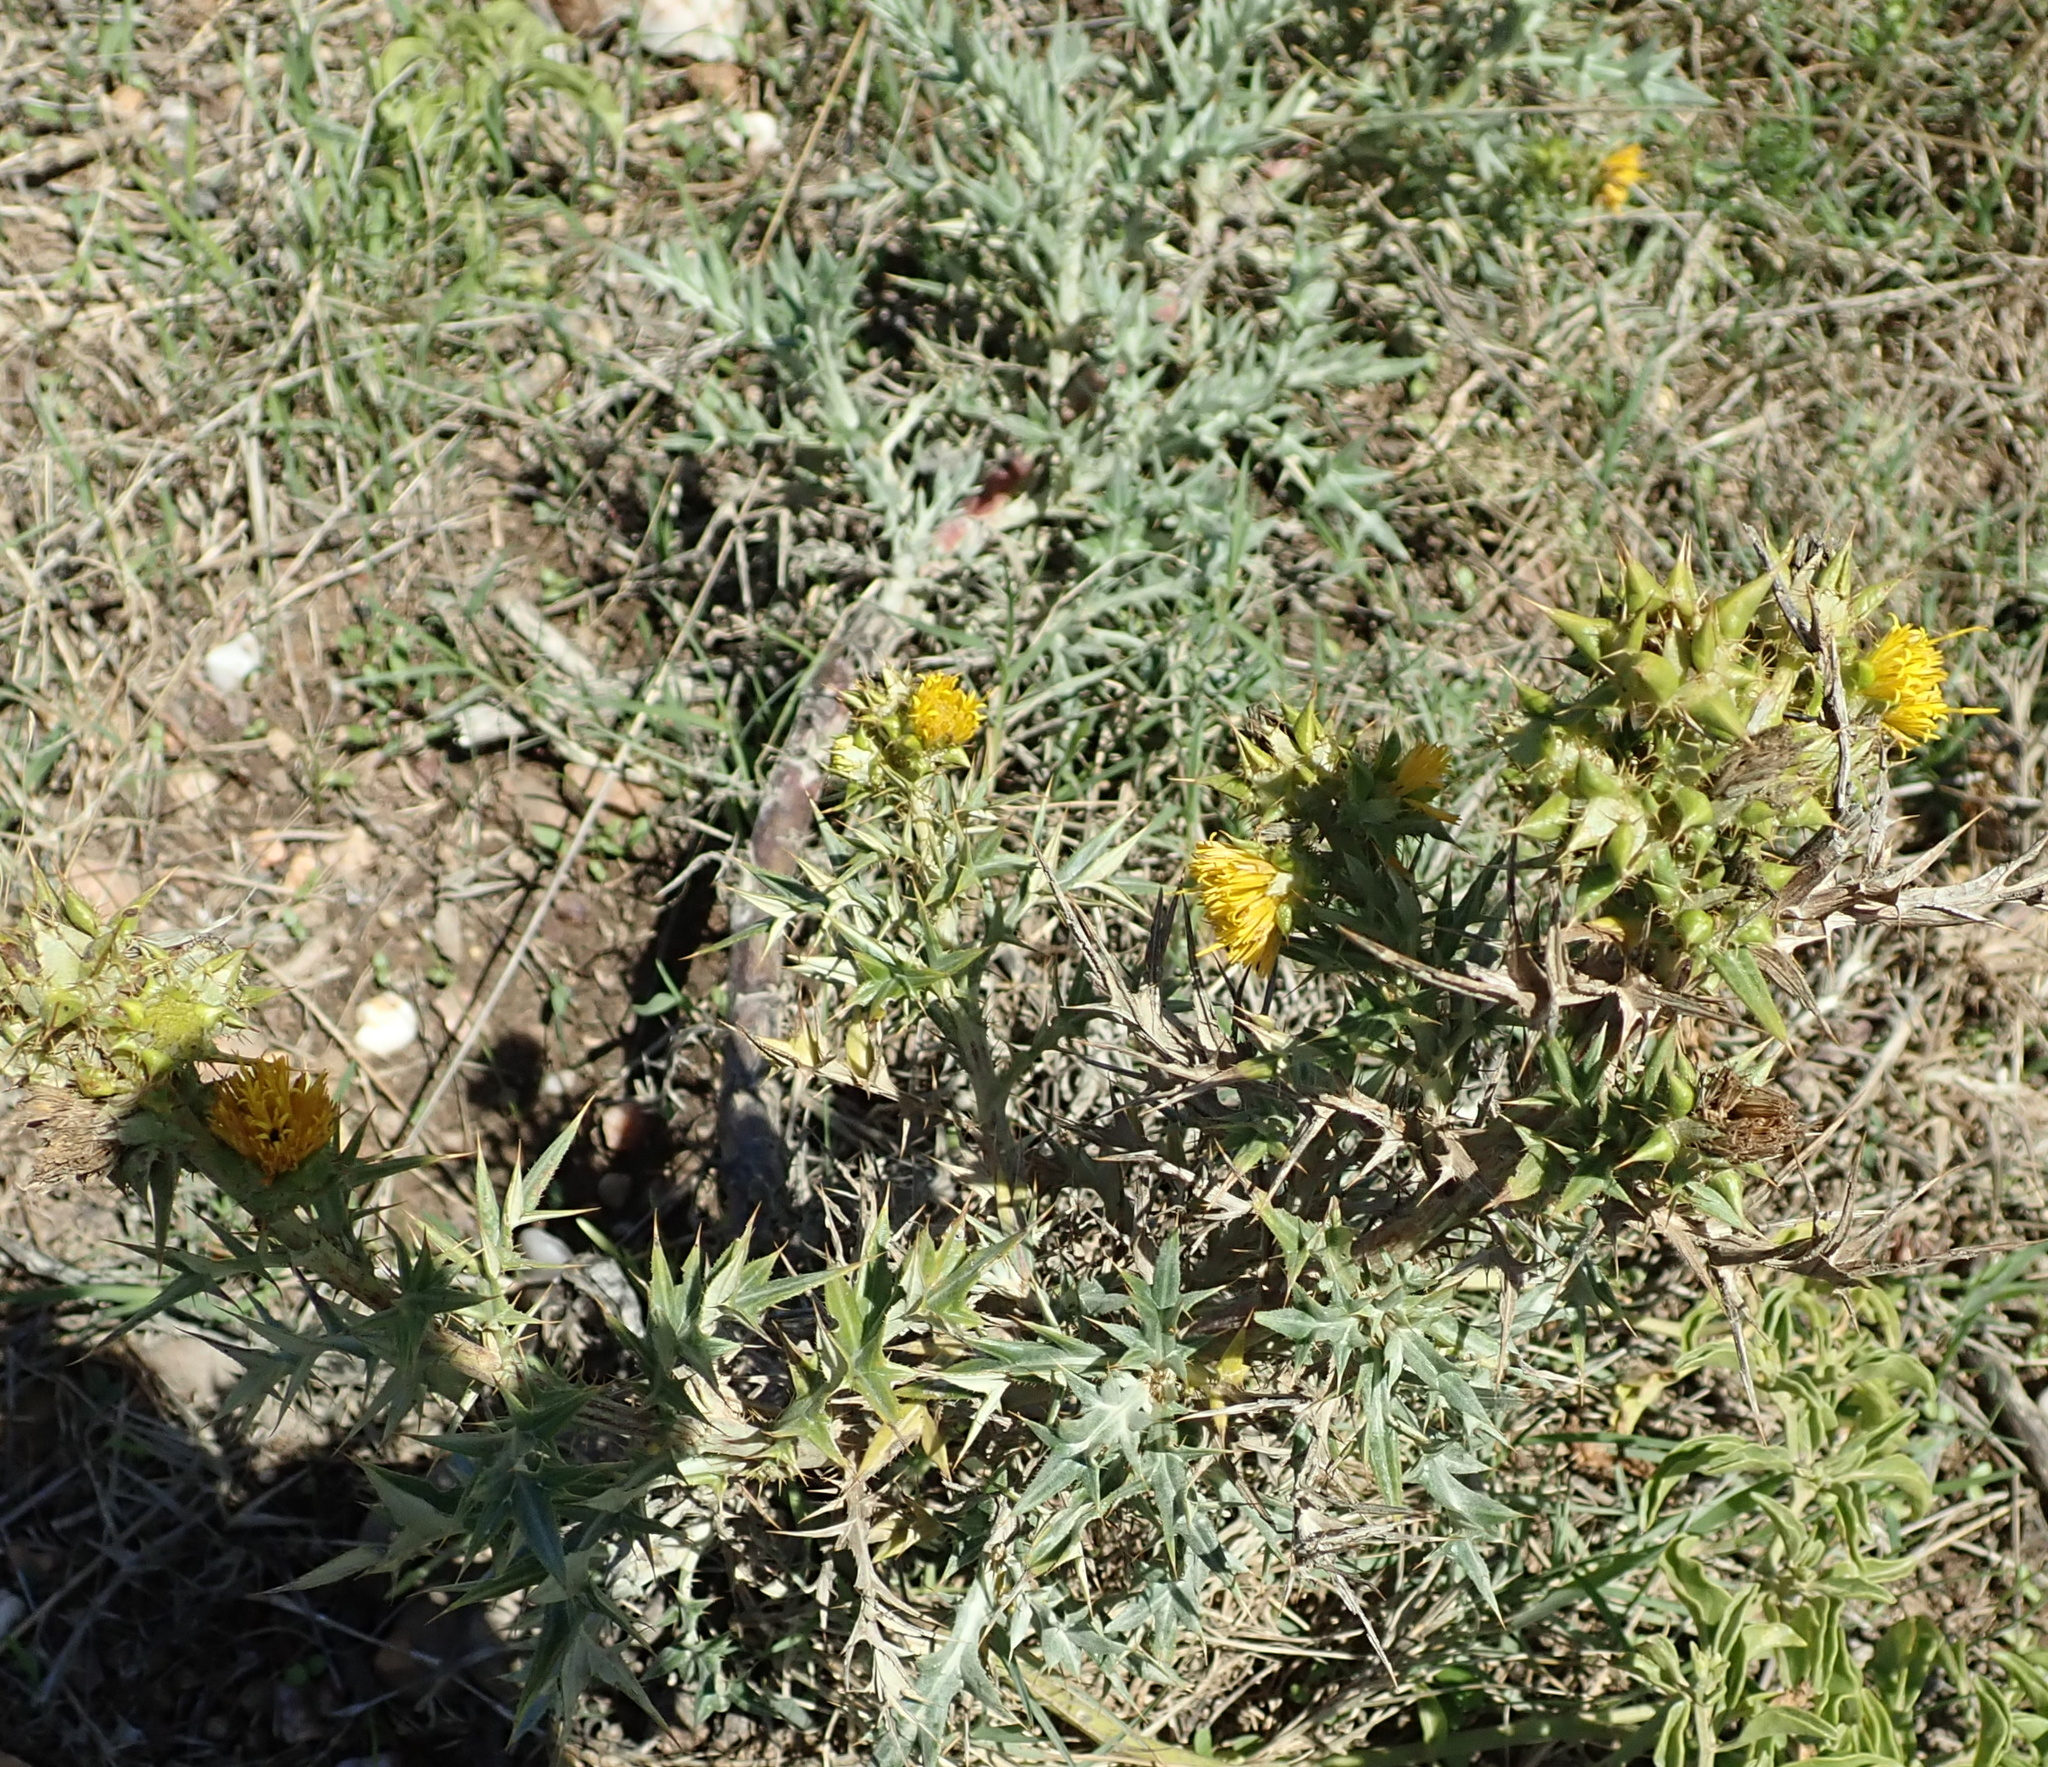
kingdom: Plantae
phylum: Tracheophyta
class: Magnoliopsida
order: Asterales
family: Asteraceae
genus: Berkheya
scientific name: Berkheya rigida
